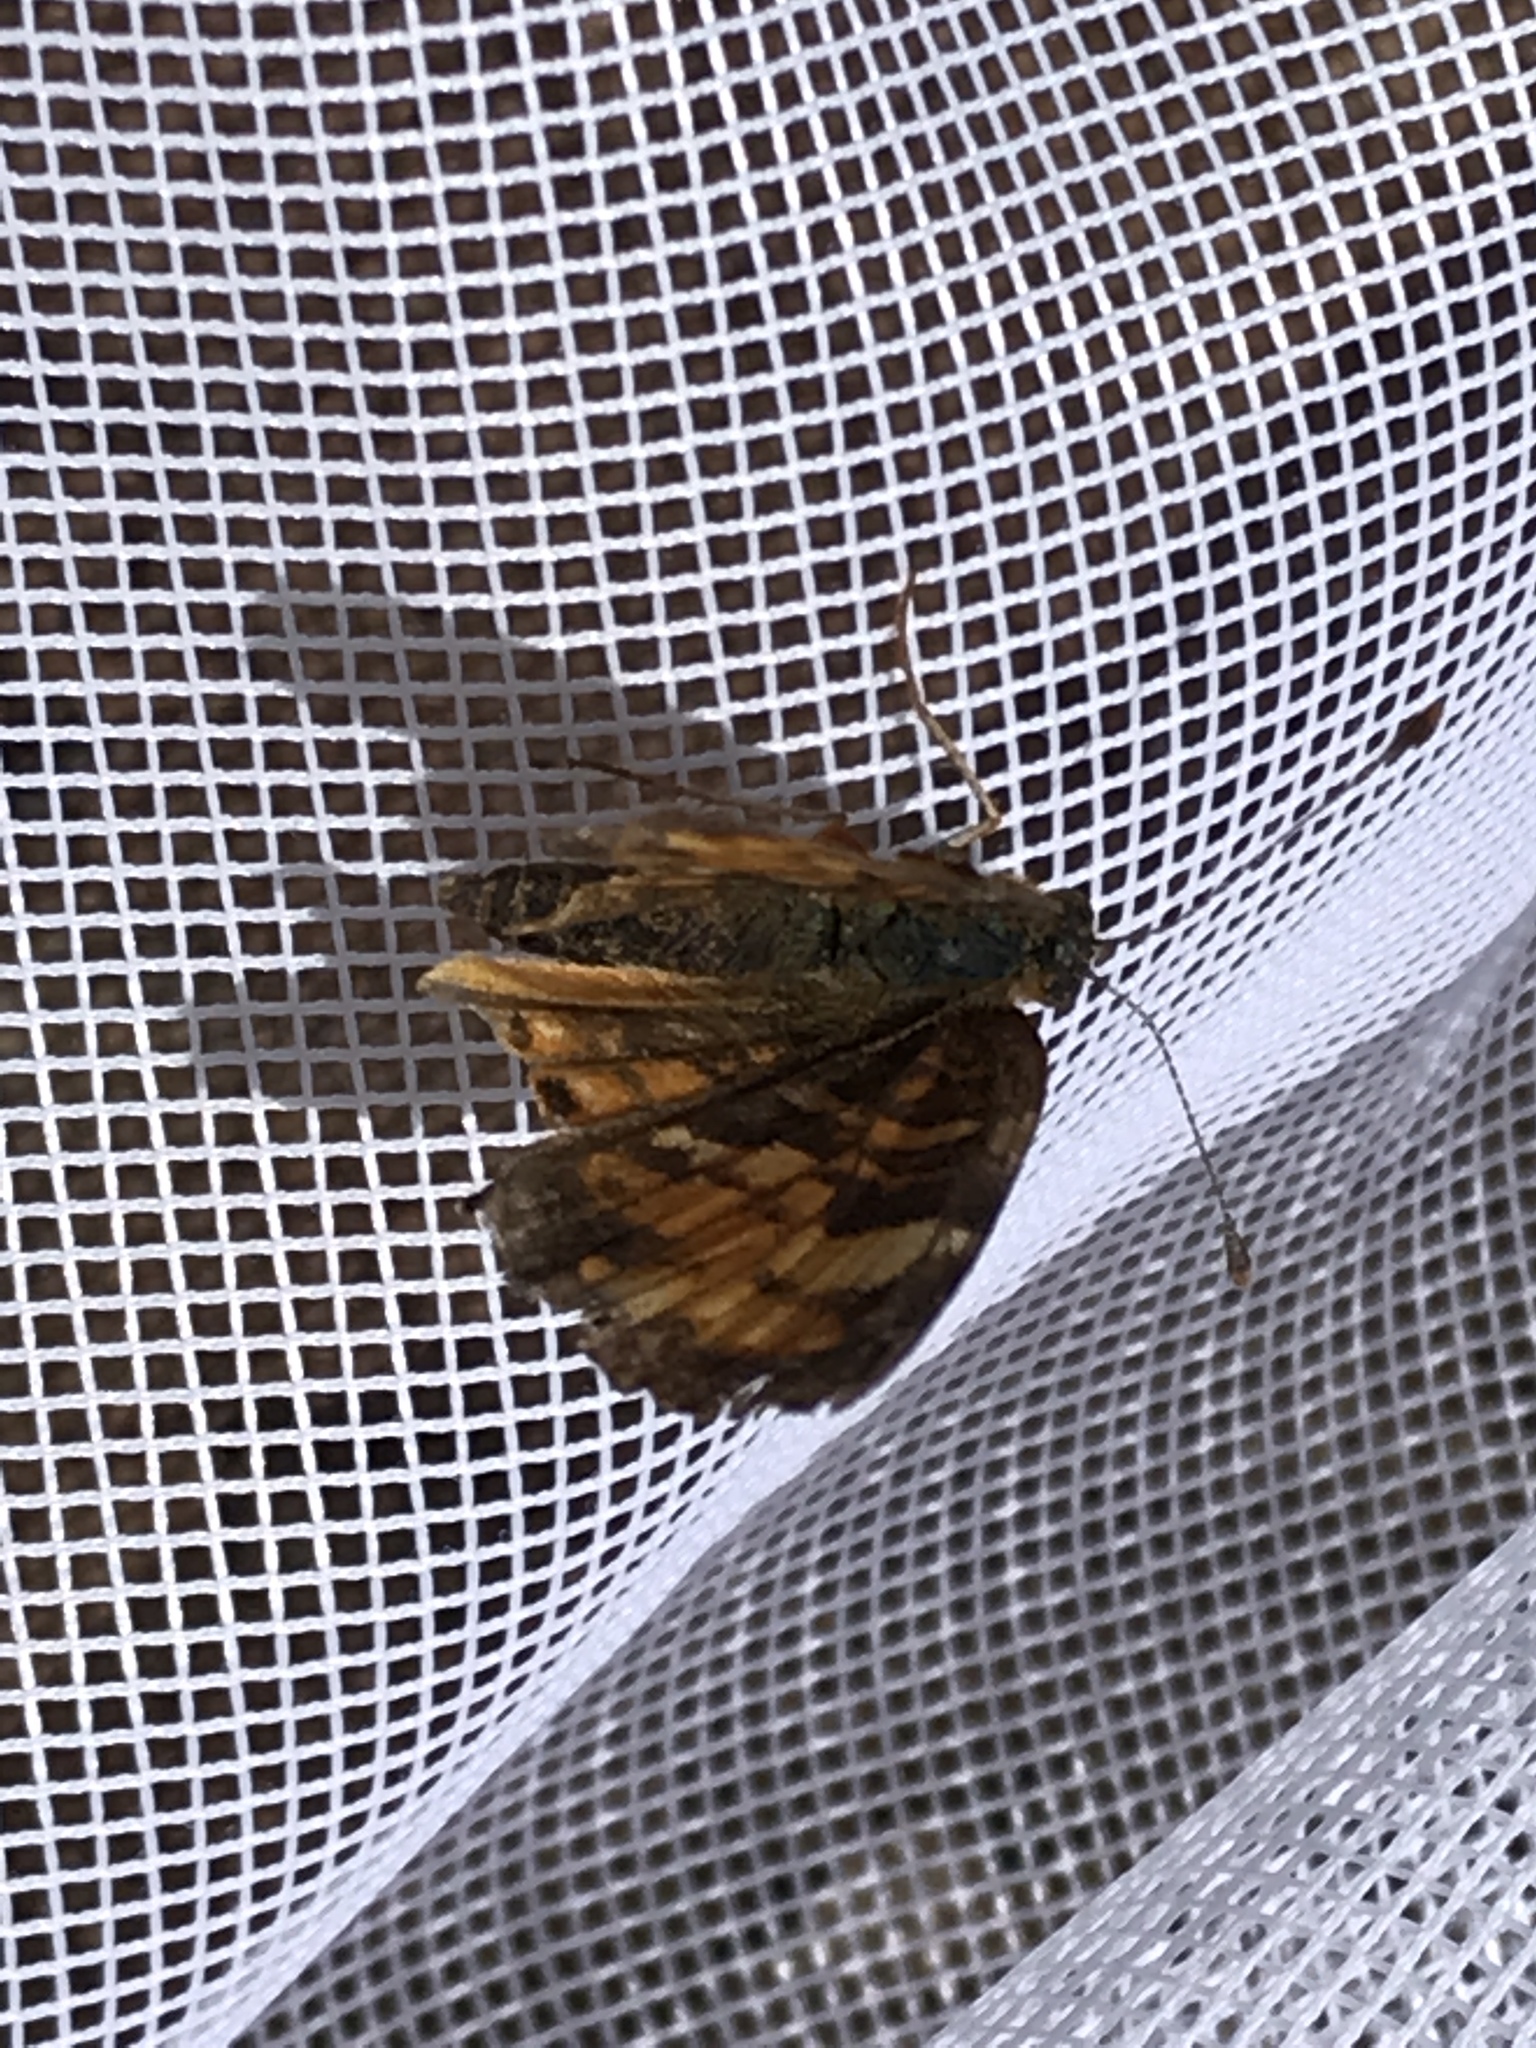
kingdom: Animalia
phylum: Arthropoda
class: Insecta
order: Lepidoptera
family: Nymphalidae
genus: Phyciodes
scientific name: Phyciodes tharos
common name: Pearl crescent
